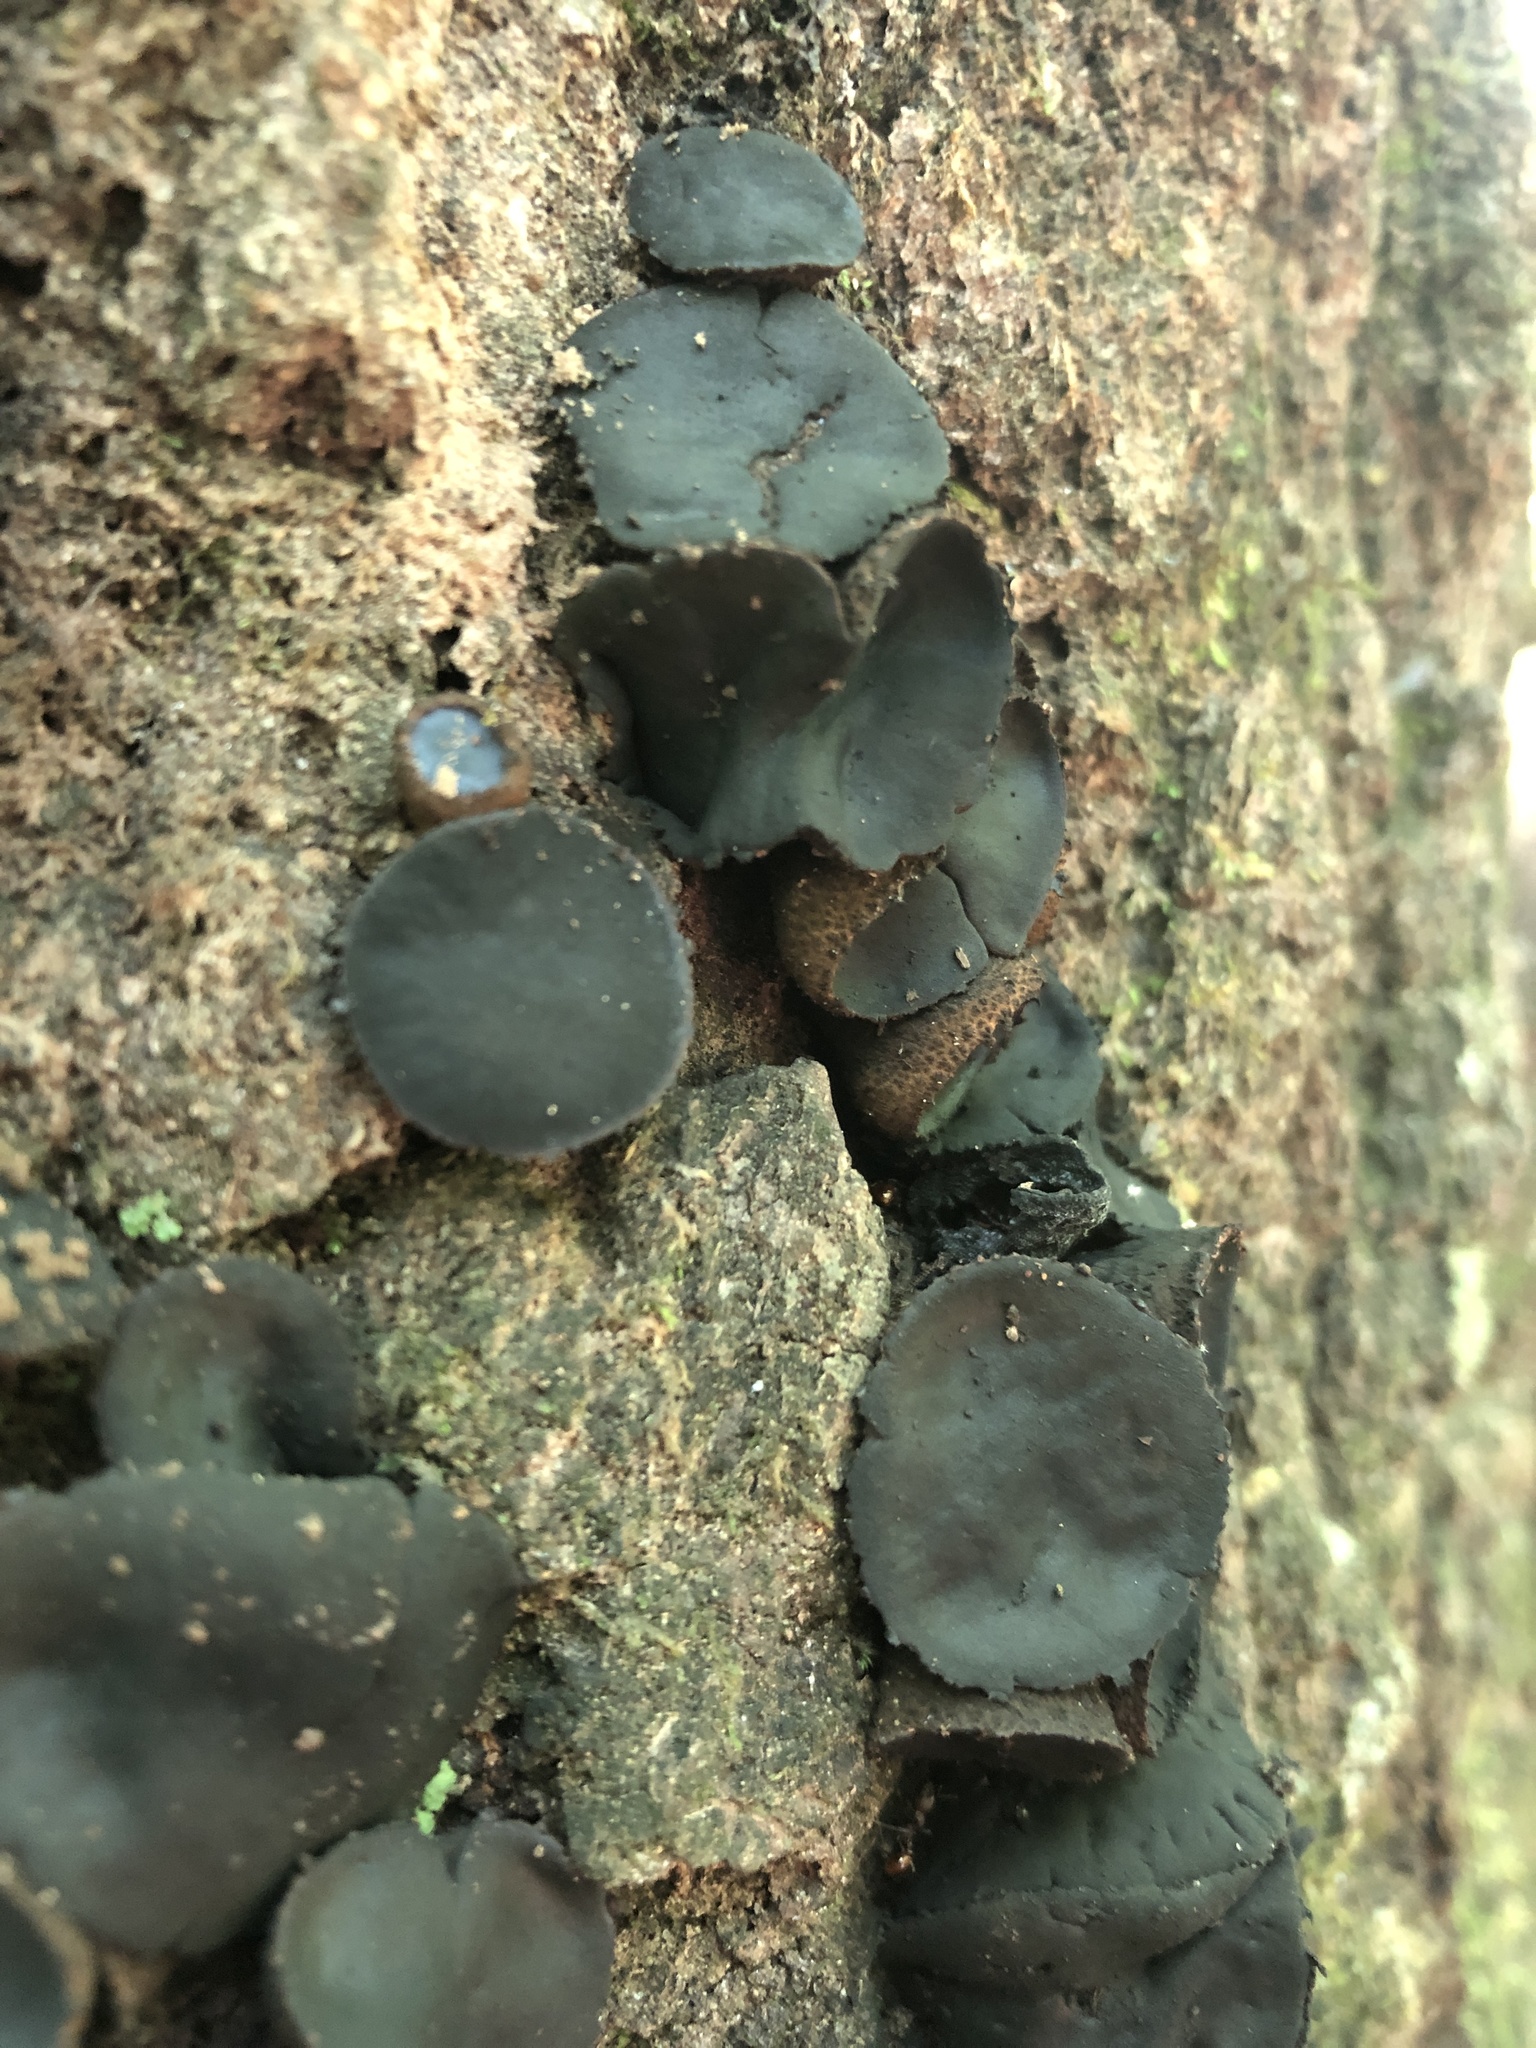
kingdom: Fungi
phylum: Ascomycota
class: Leotiomycetes
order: Phacidiales
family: Phacidiaceae
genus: Bulgaria
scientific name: Bulgaria inquinans
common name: Black bulgar
